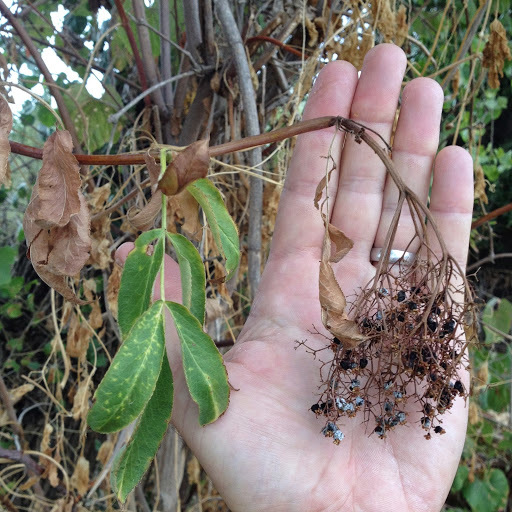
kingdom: Plantae
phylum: Tracheophyta
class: Magnoliopsida
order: Dipsacales
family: Viburnaceae
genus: Sambucus
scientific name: Sambucus cerulea
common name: Blue elder
